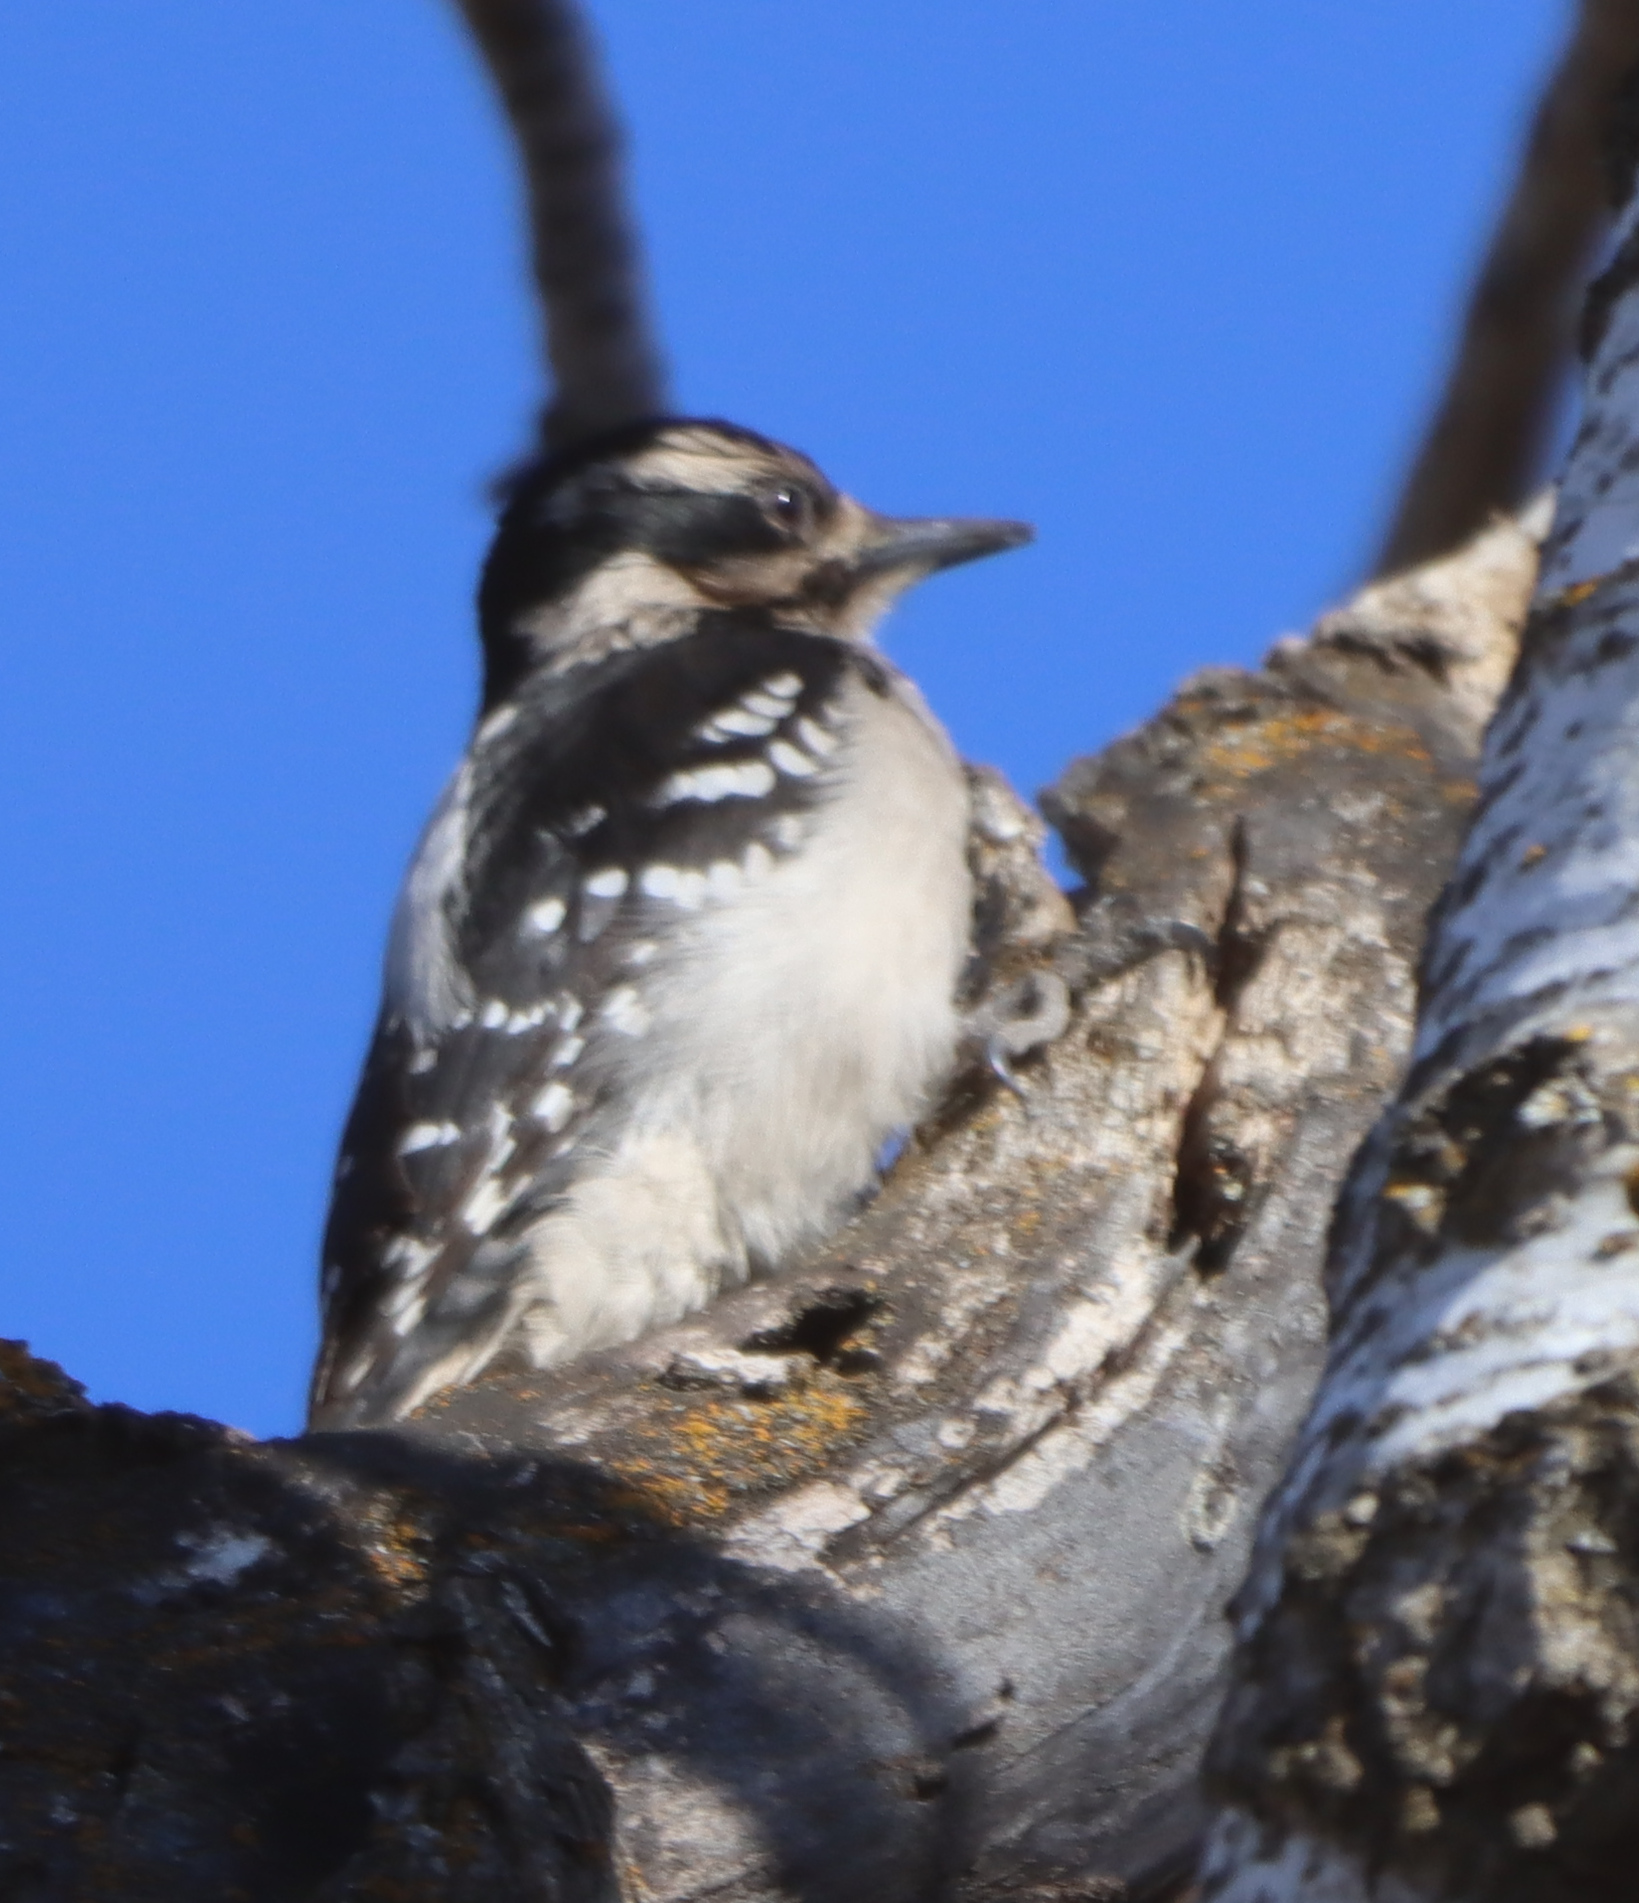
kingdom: Animalia
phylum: Chordata
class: Aves
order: Piciformes
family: Picidae
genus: Dryobates
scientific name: Dryobates pubescens
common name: Downy woodpecker
